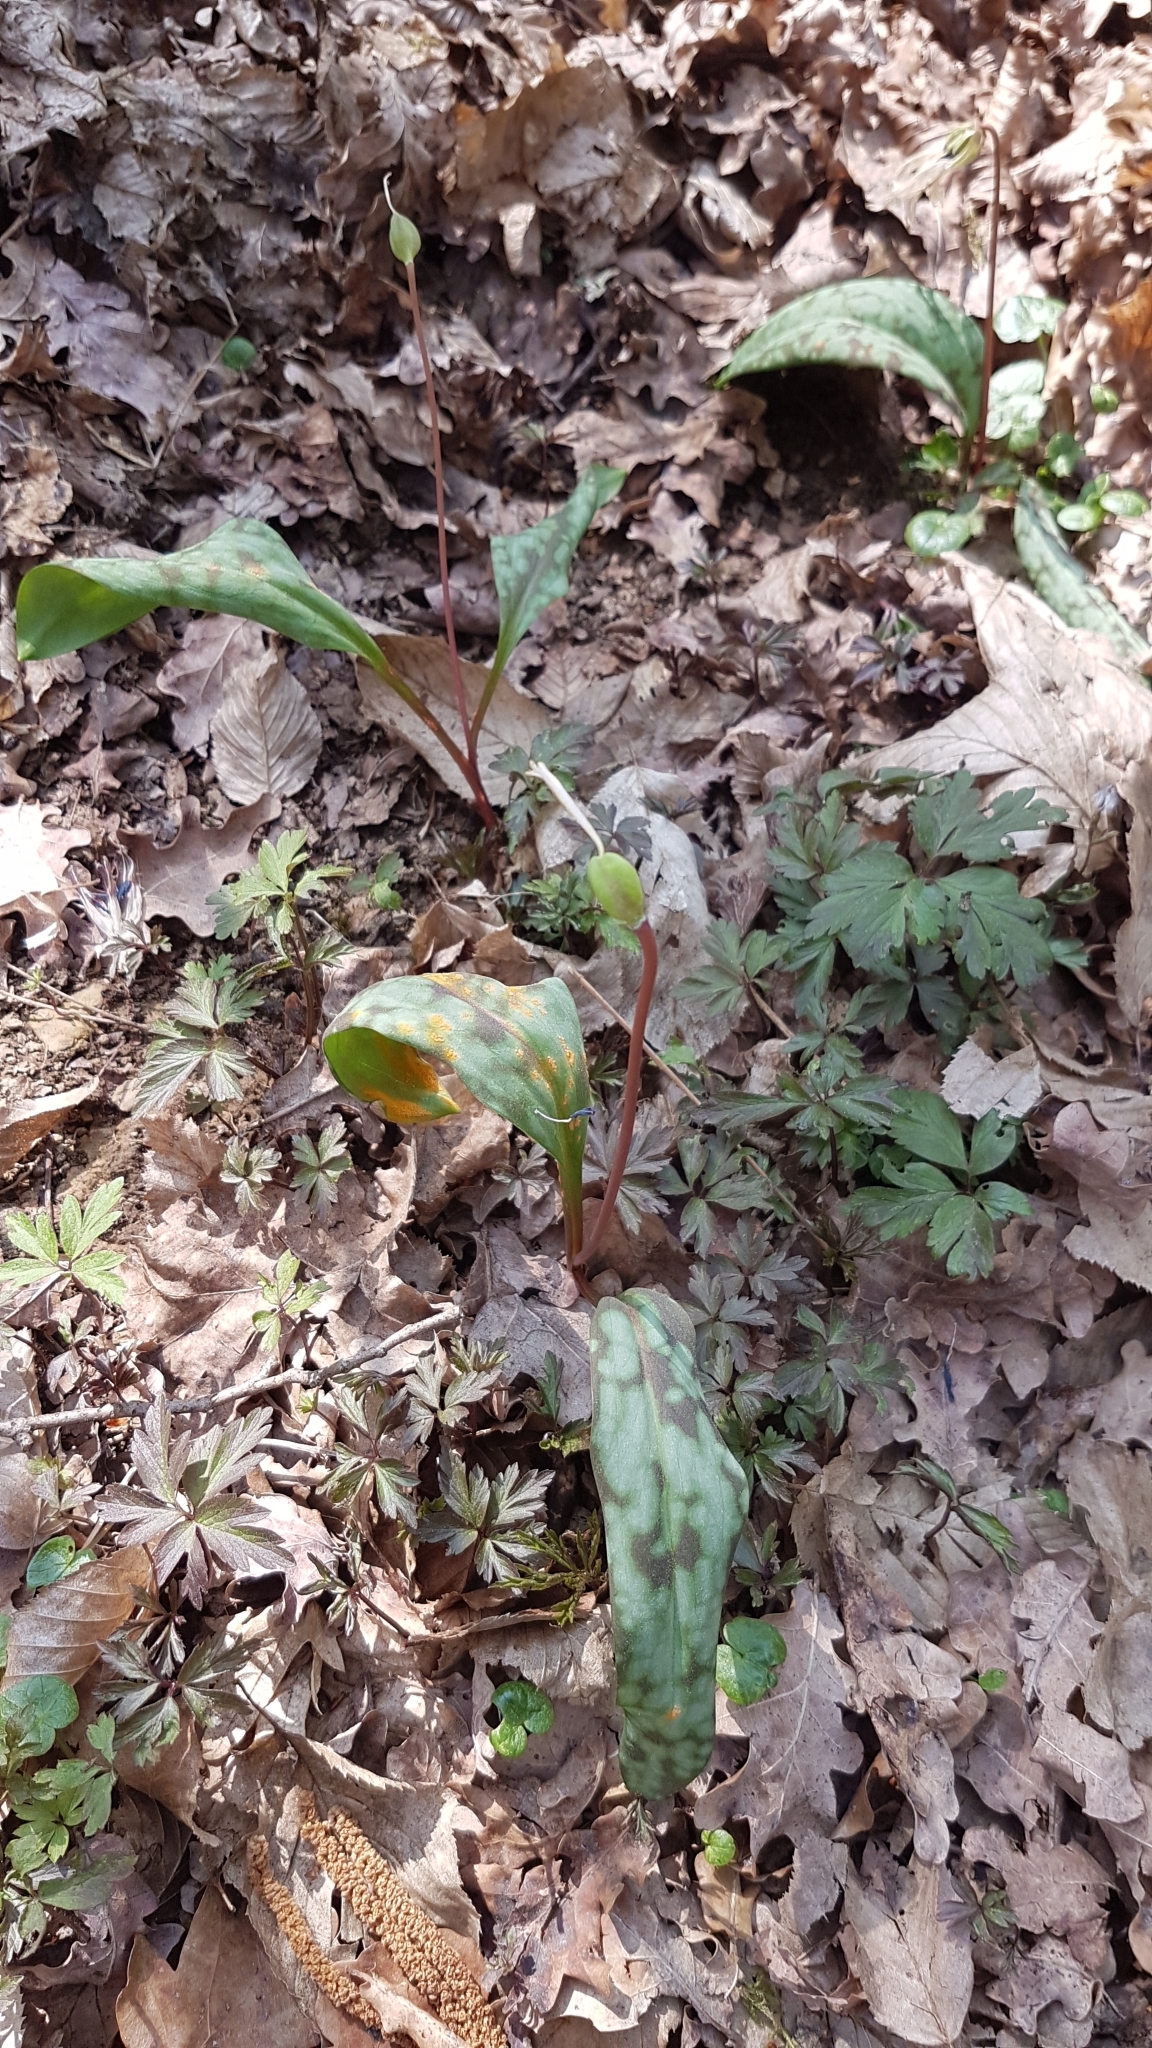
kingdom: Plantae
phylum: Tracheophyta
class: Liliopsida
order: Liliales
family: Liliaceae
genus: Erythronium
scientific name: Erythronium dens-canis
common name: Dog's-tooth-violet
